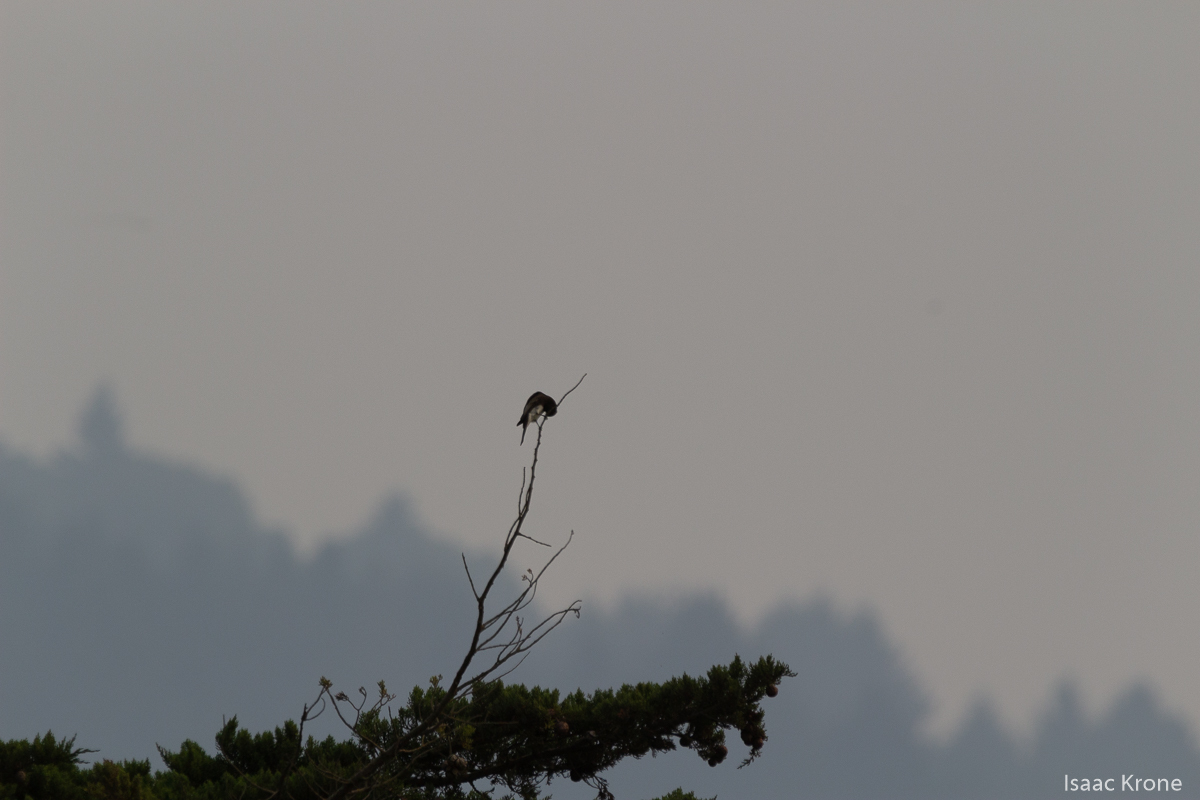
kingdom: Animalia
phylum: Chordata
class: Aves
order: Passeriformes
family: Tyrannidae
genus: Sayornis
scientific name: Sayornis nigricans
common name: Black phoebe
